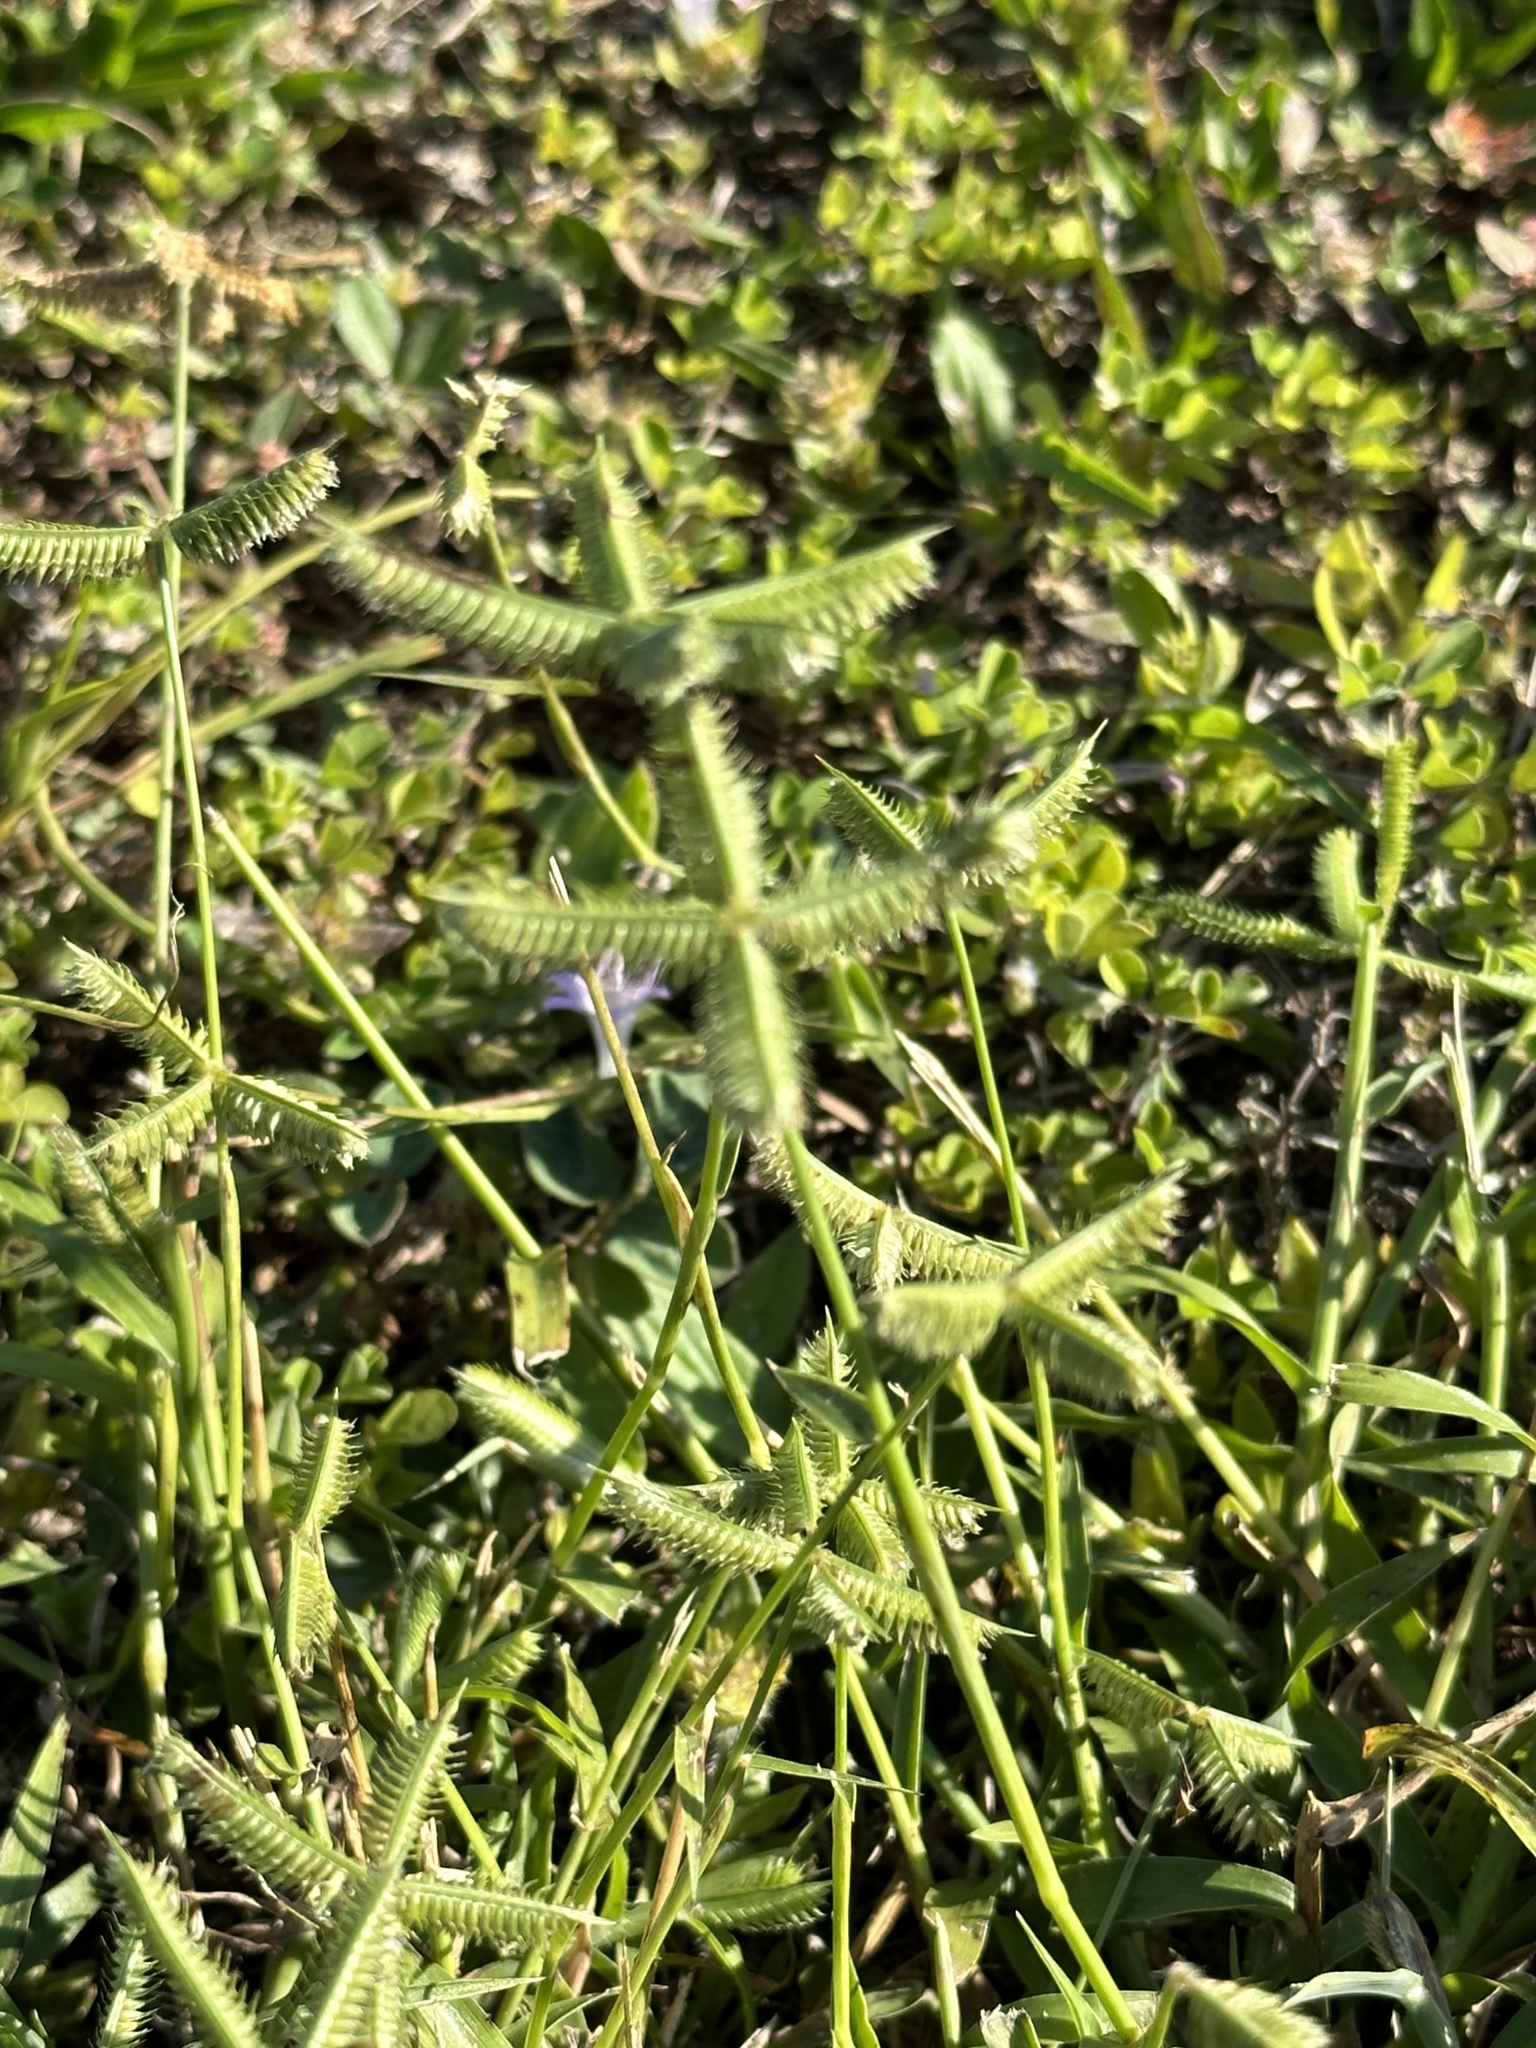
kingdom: Plantae
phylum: Tracheophyta
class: Liliopsida
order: Poales
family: Poaceae
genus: Dactyloctenium
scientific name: Dactyloctenium aegyptium
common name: Egyptian grass
